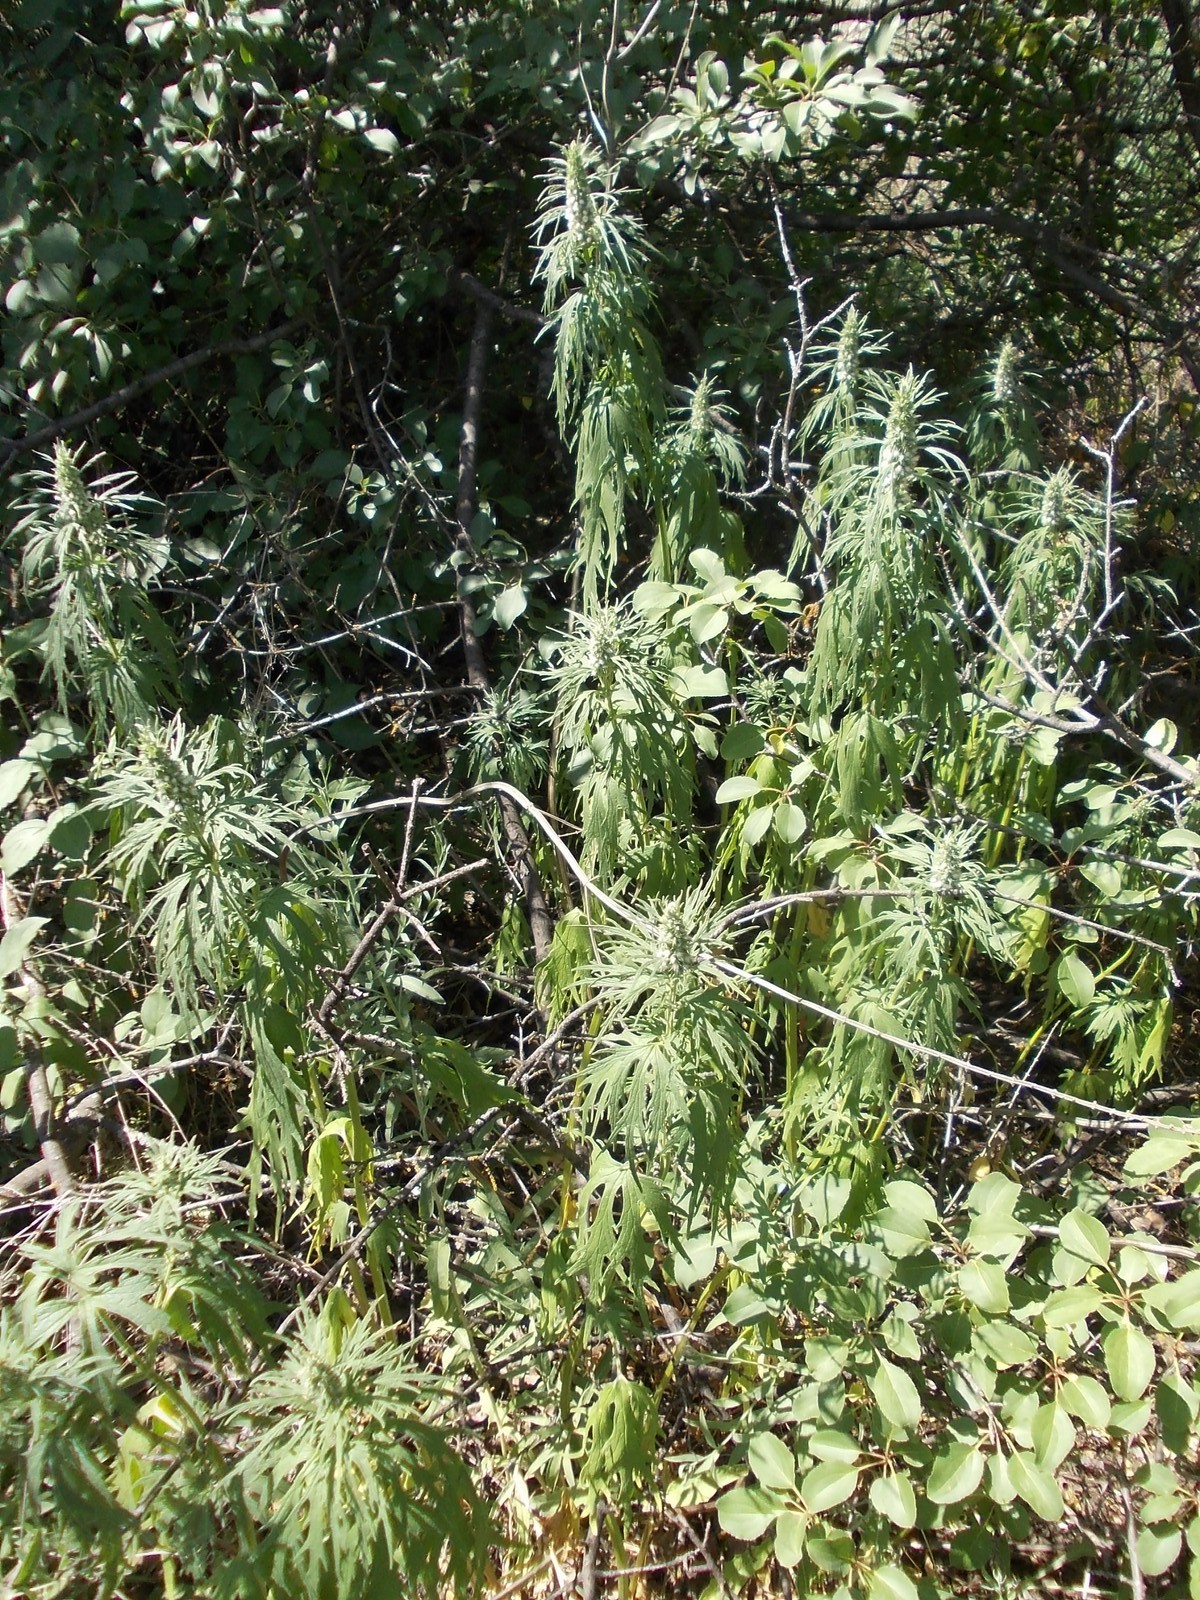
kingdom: Plantae
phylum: Tracheophyta
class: Magnoliopsida
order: Lamiales
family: Lamiaceae
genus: Leonurus
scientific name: Leonurus glaucescens
